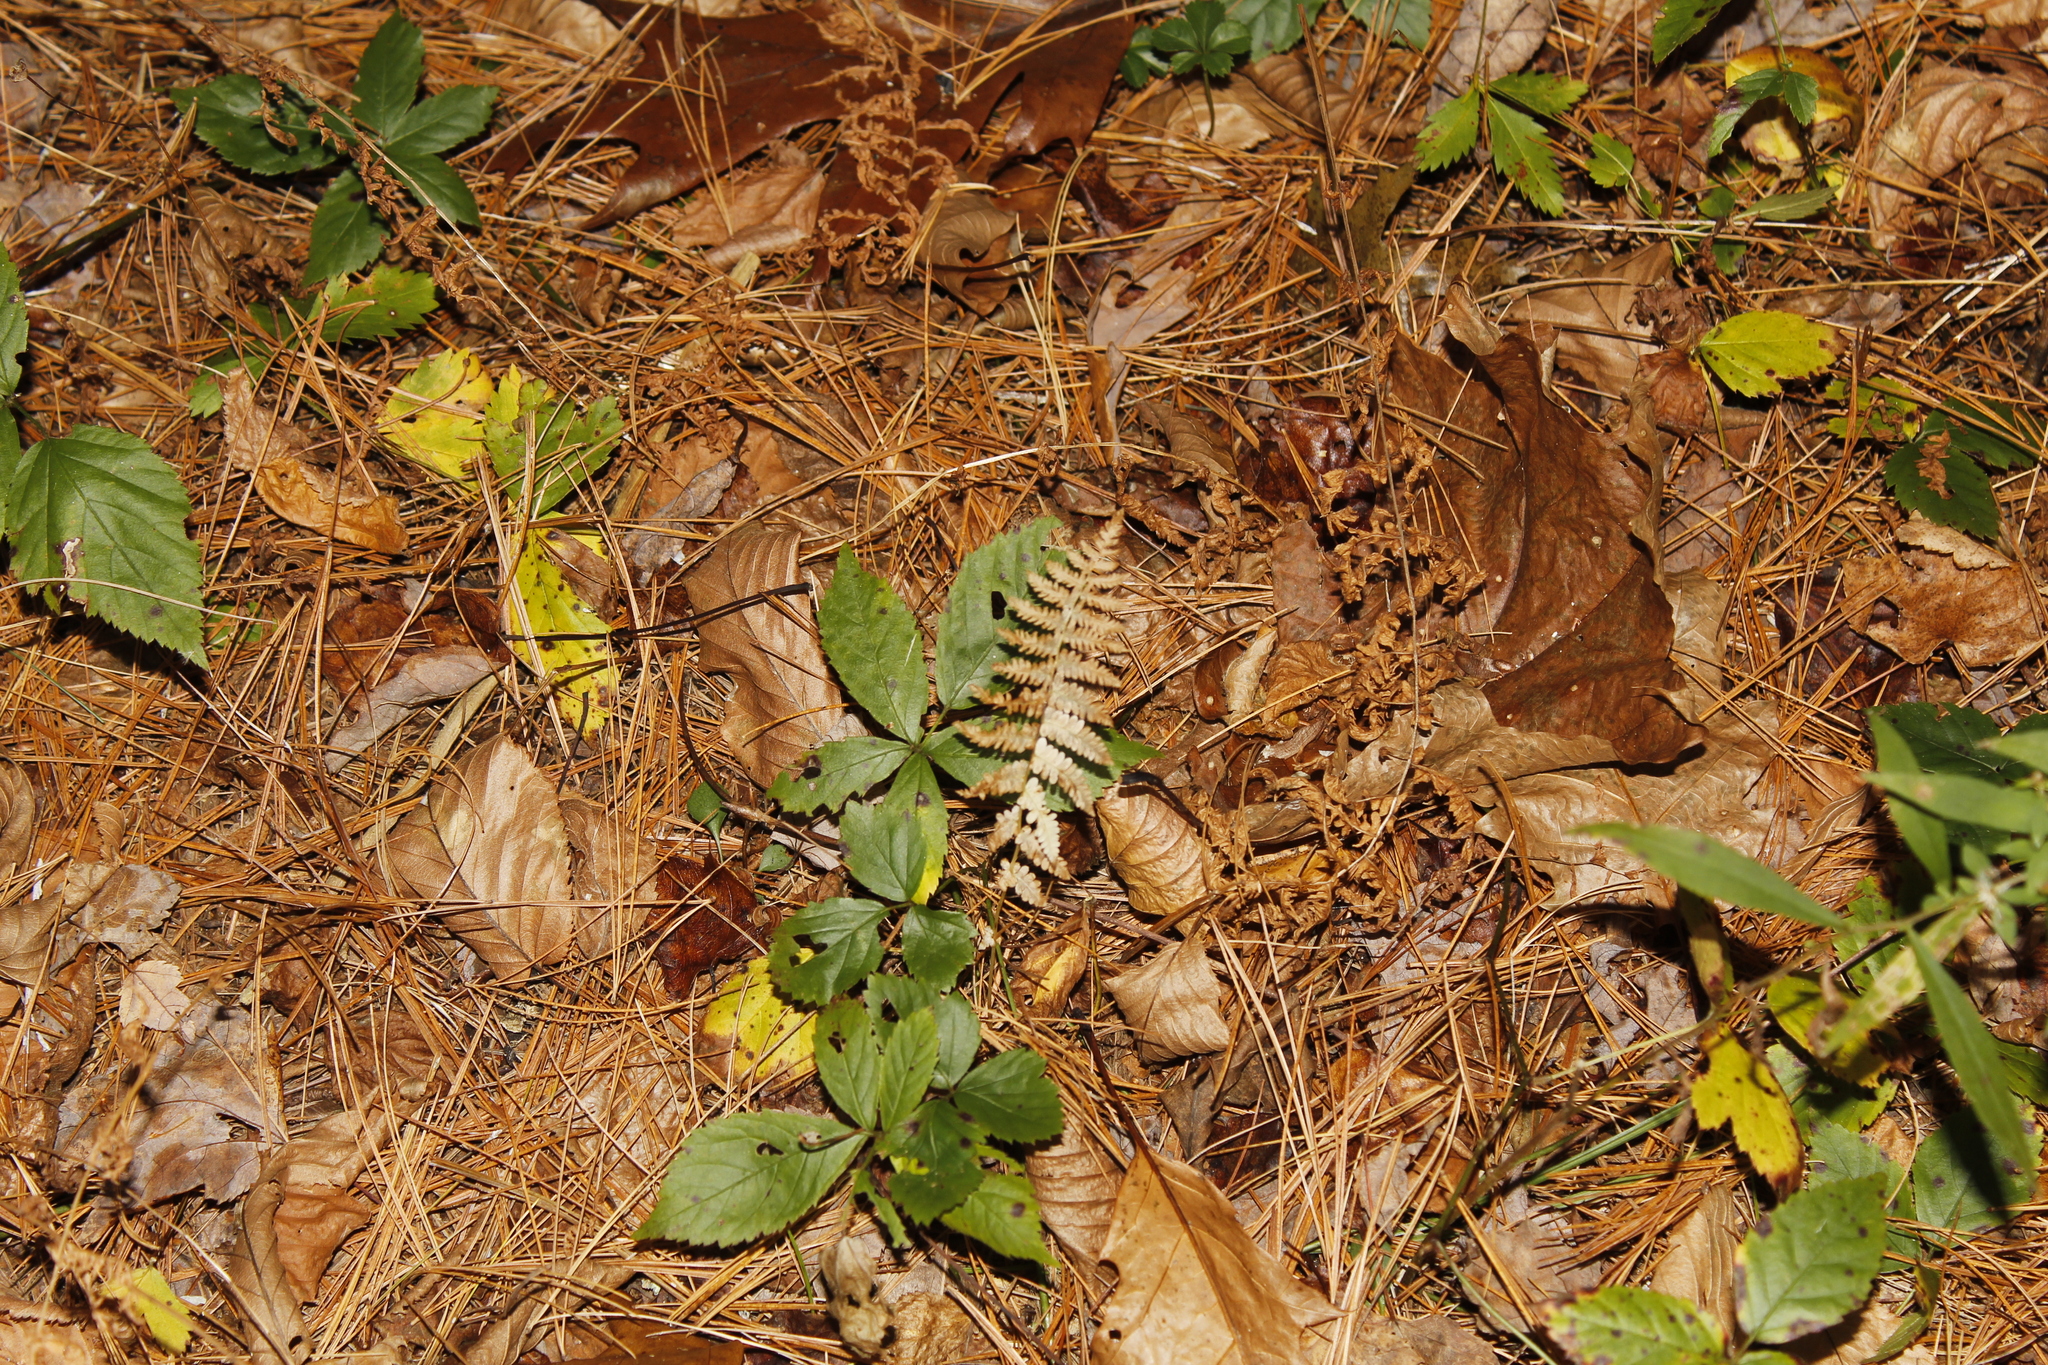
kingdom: Plantae
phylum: Tracheophyta
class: Polypodiopsida
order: Polypodiales
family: Thelypteridaceae
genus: Amauropelta
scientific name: Amauropelta noveboracensis
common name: New york fern
